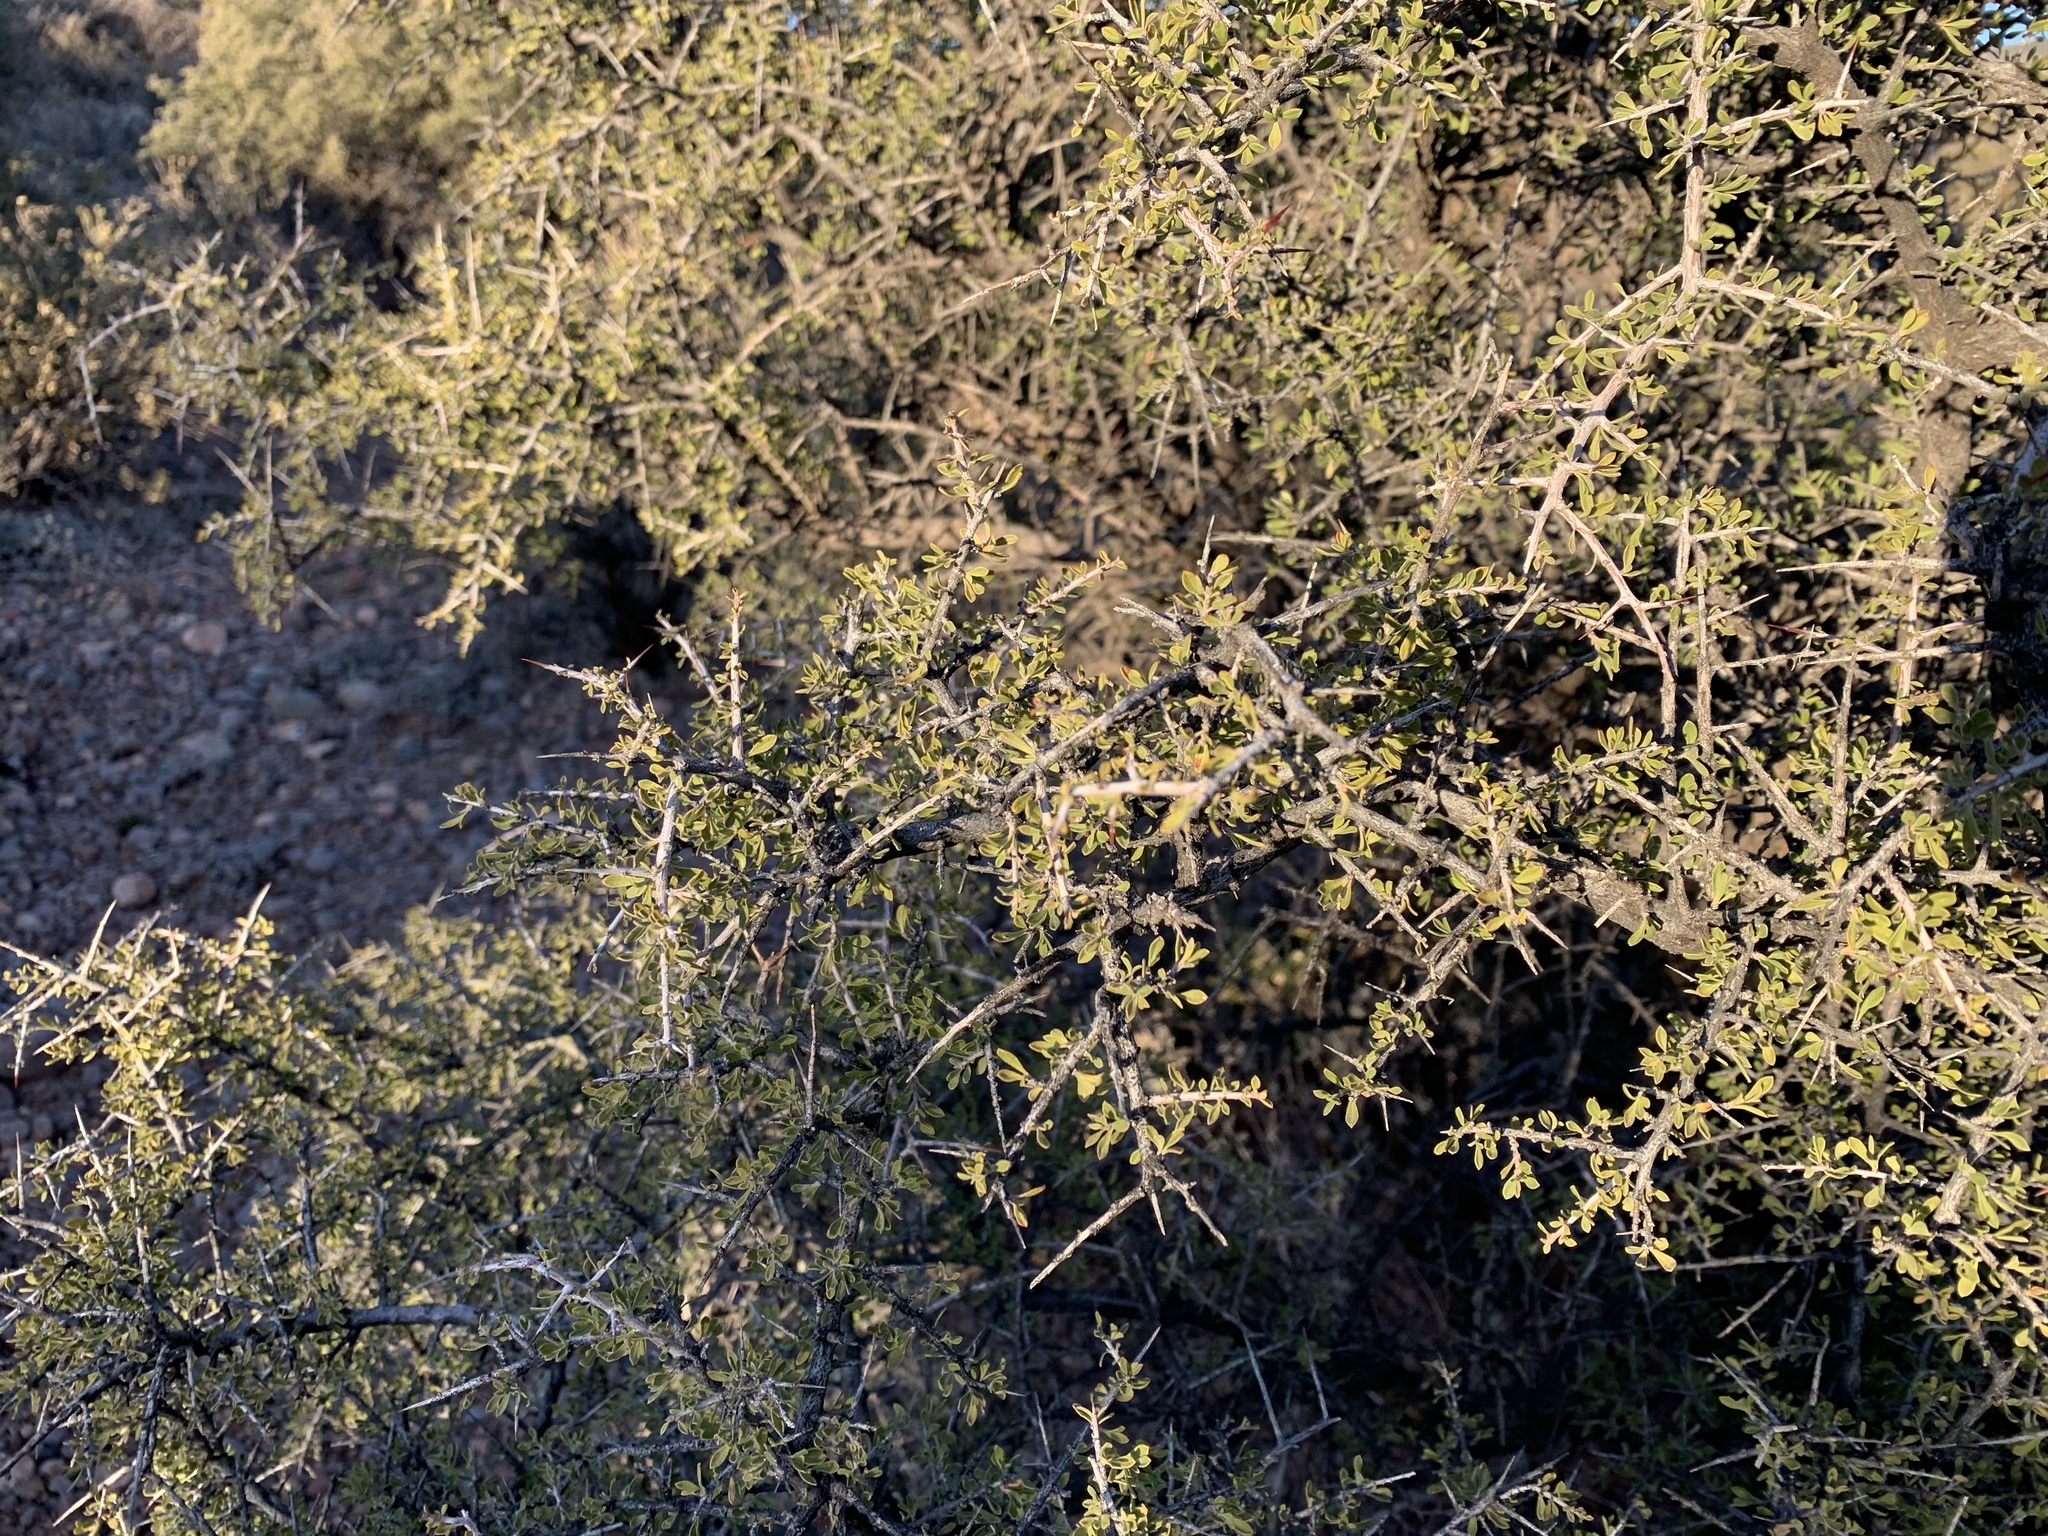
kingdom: Plantae
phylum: Tracheophyta
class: Magnoliopsida
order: Rosales
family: Rhamnaceae
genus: Condalia
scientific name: Condalia warnockii
